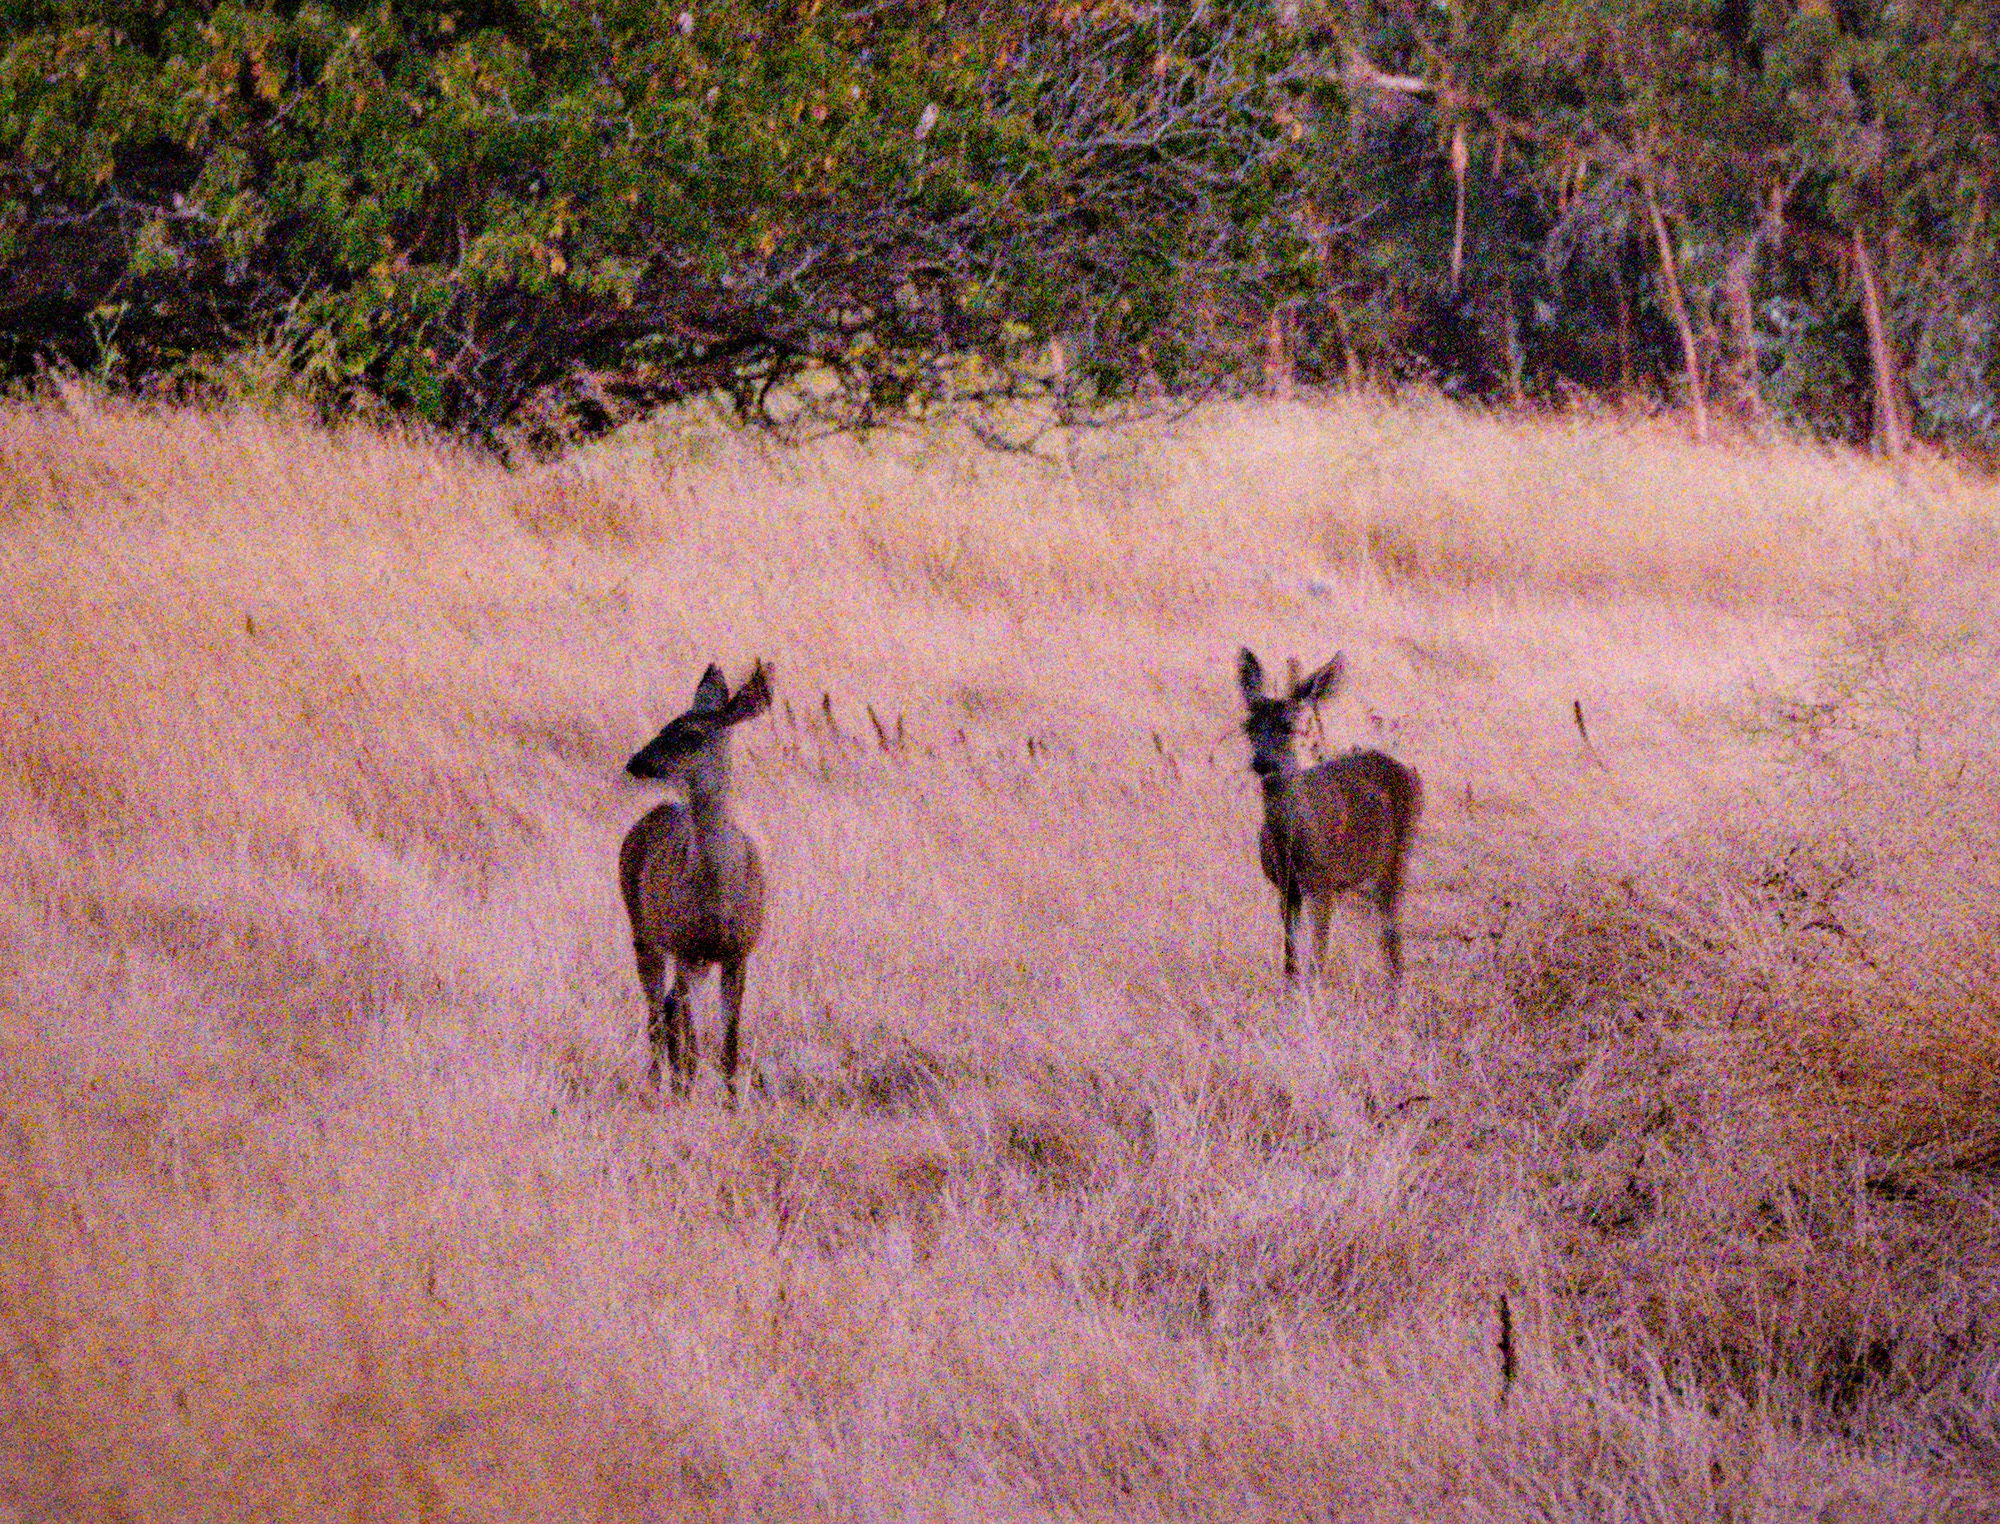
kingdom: Animalia
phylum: Chordata
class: Mammalia
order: Artiodactyla
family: Cervidae
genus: Odocoileus
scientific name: Odocoileus hemionus
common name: Mule deer
